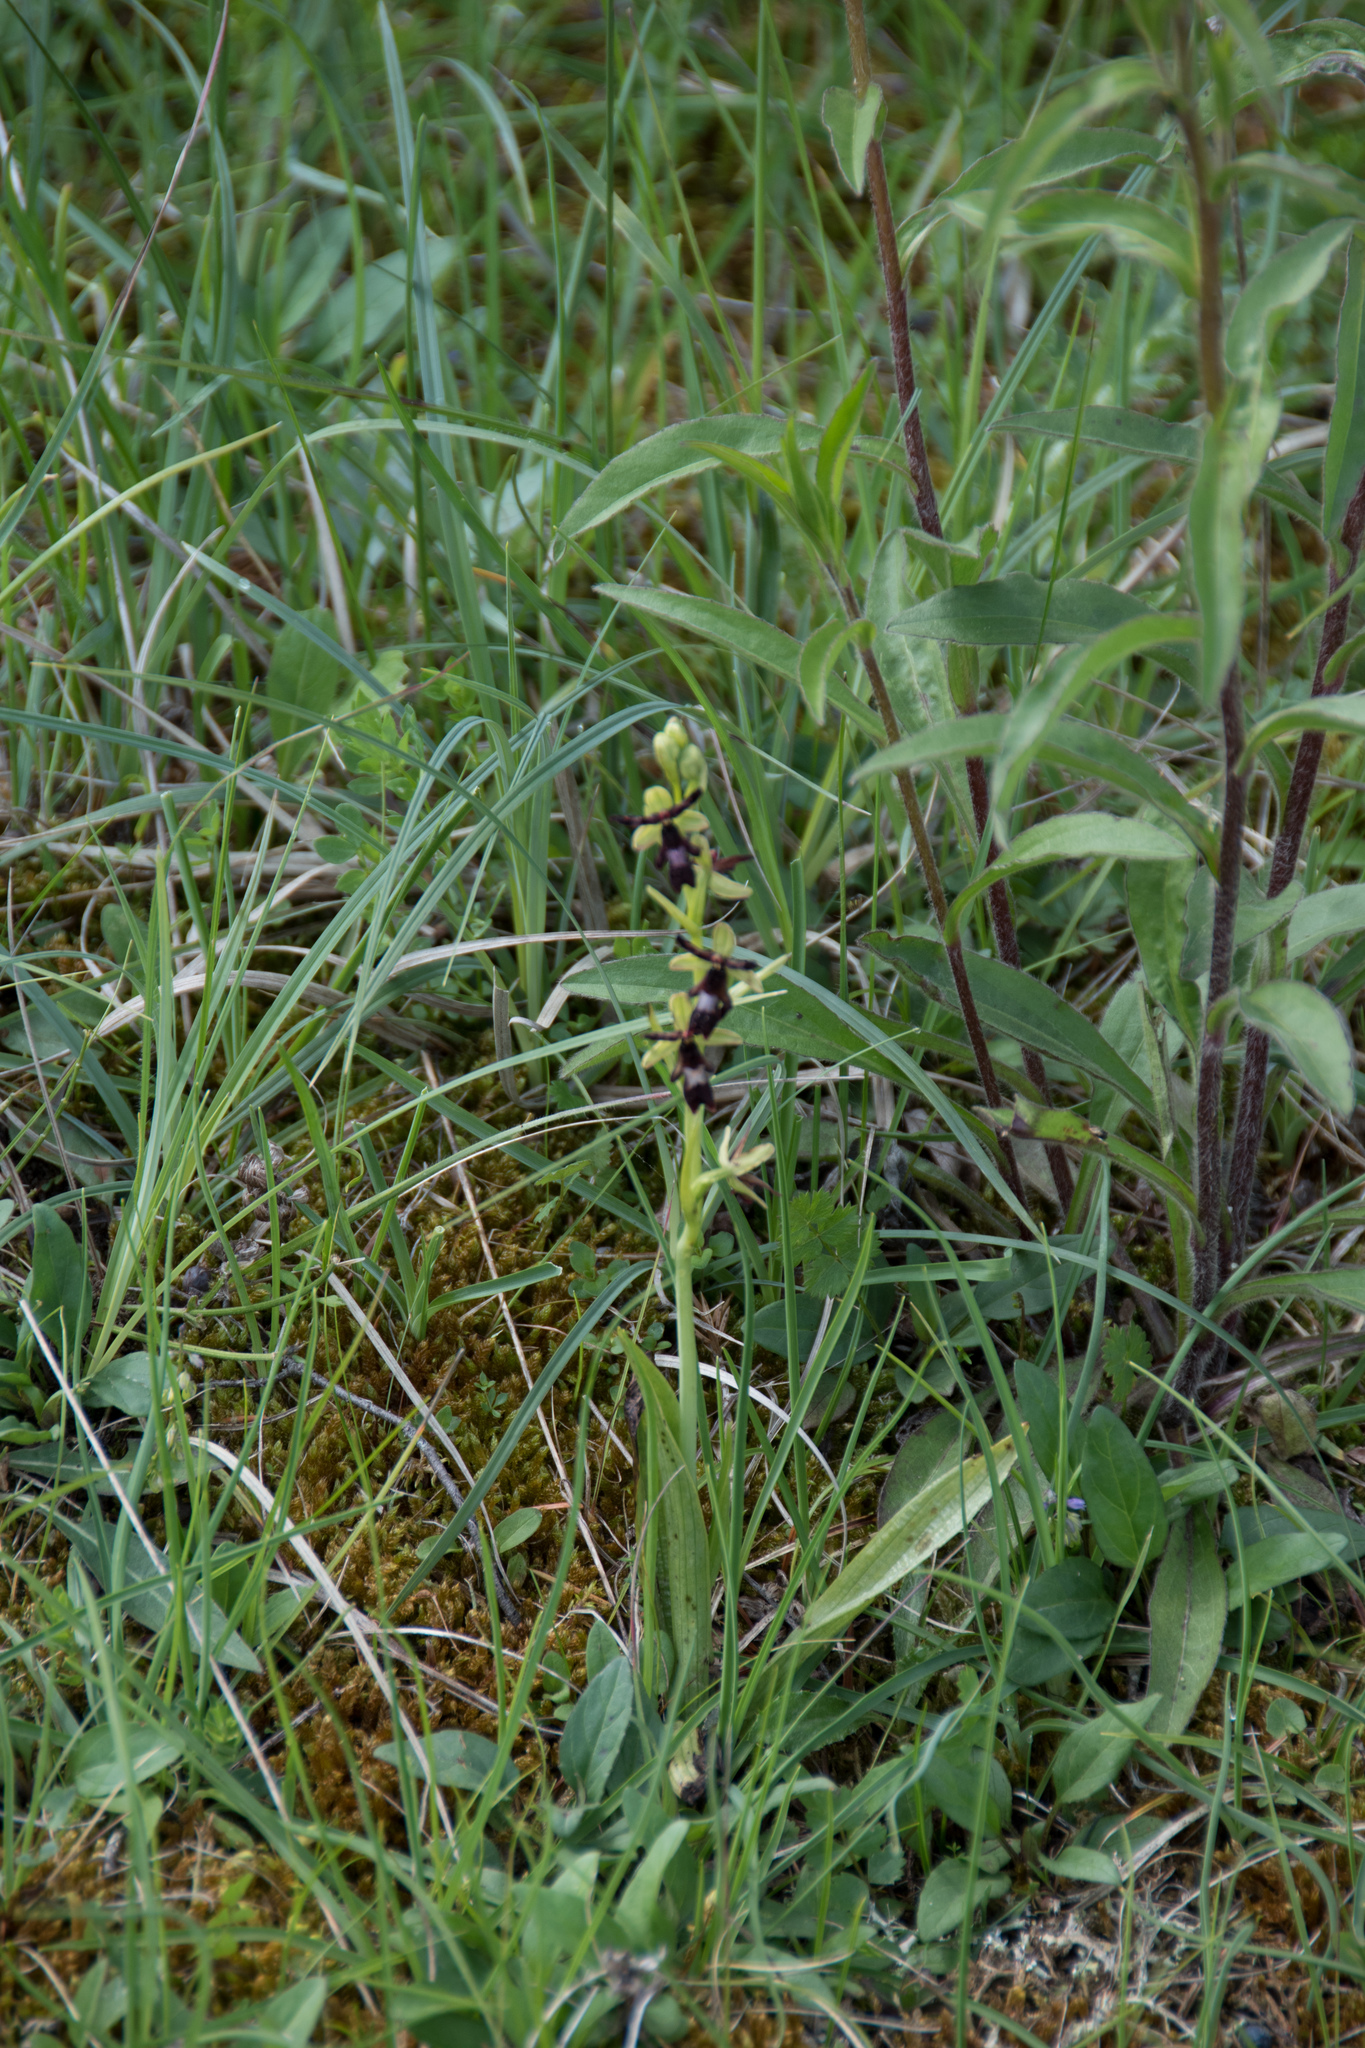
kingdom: Plantae
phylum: Tracheophyta
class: Liliopsida
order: Asparagales
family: Orchidaceae
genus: Ophrys
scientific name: Ophrys insectifera
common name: Fly orchid
